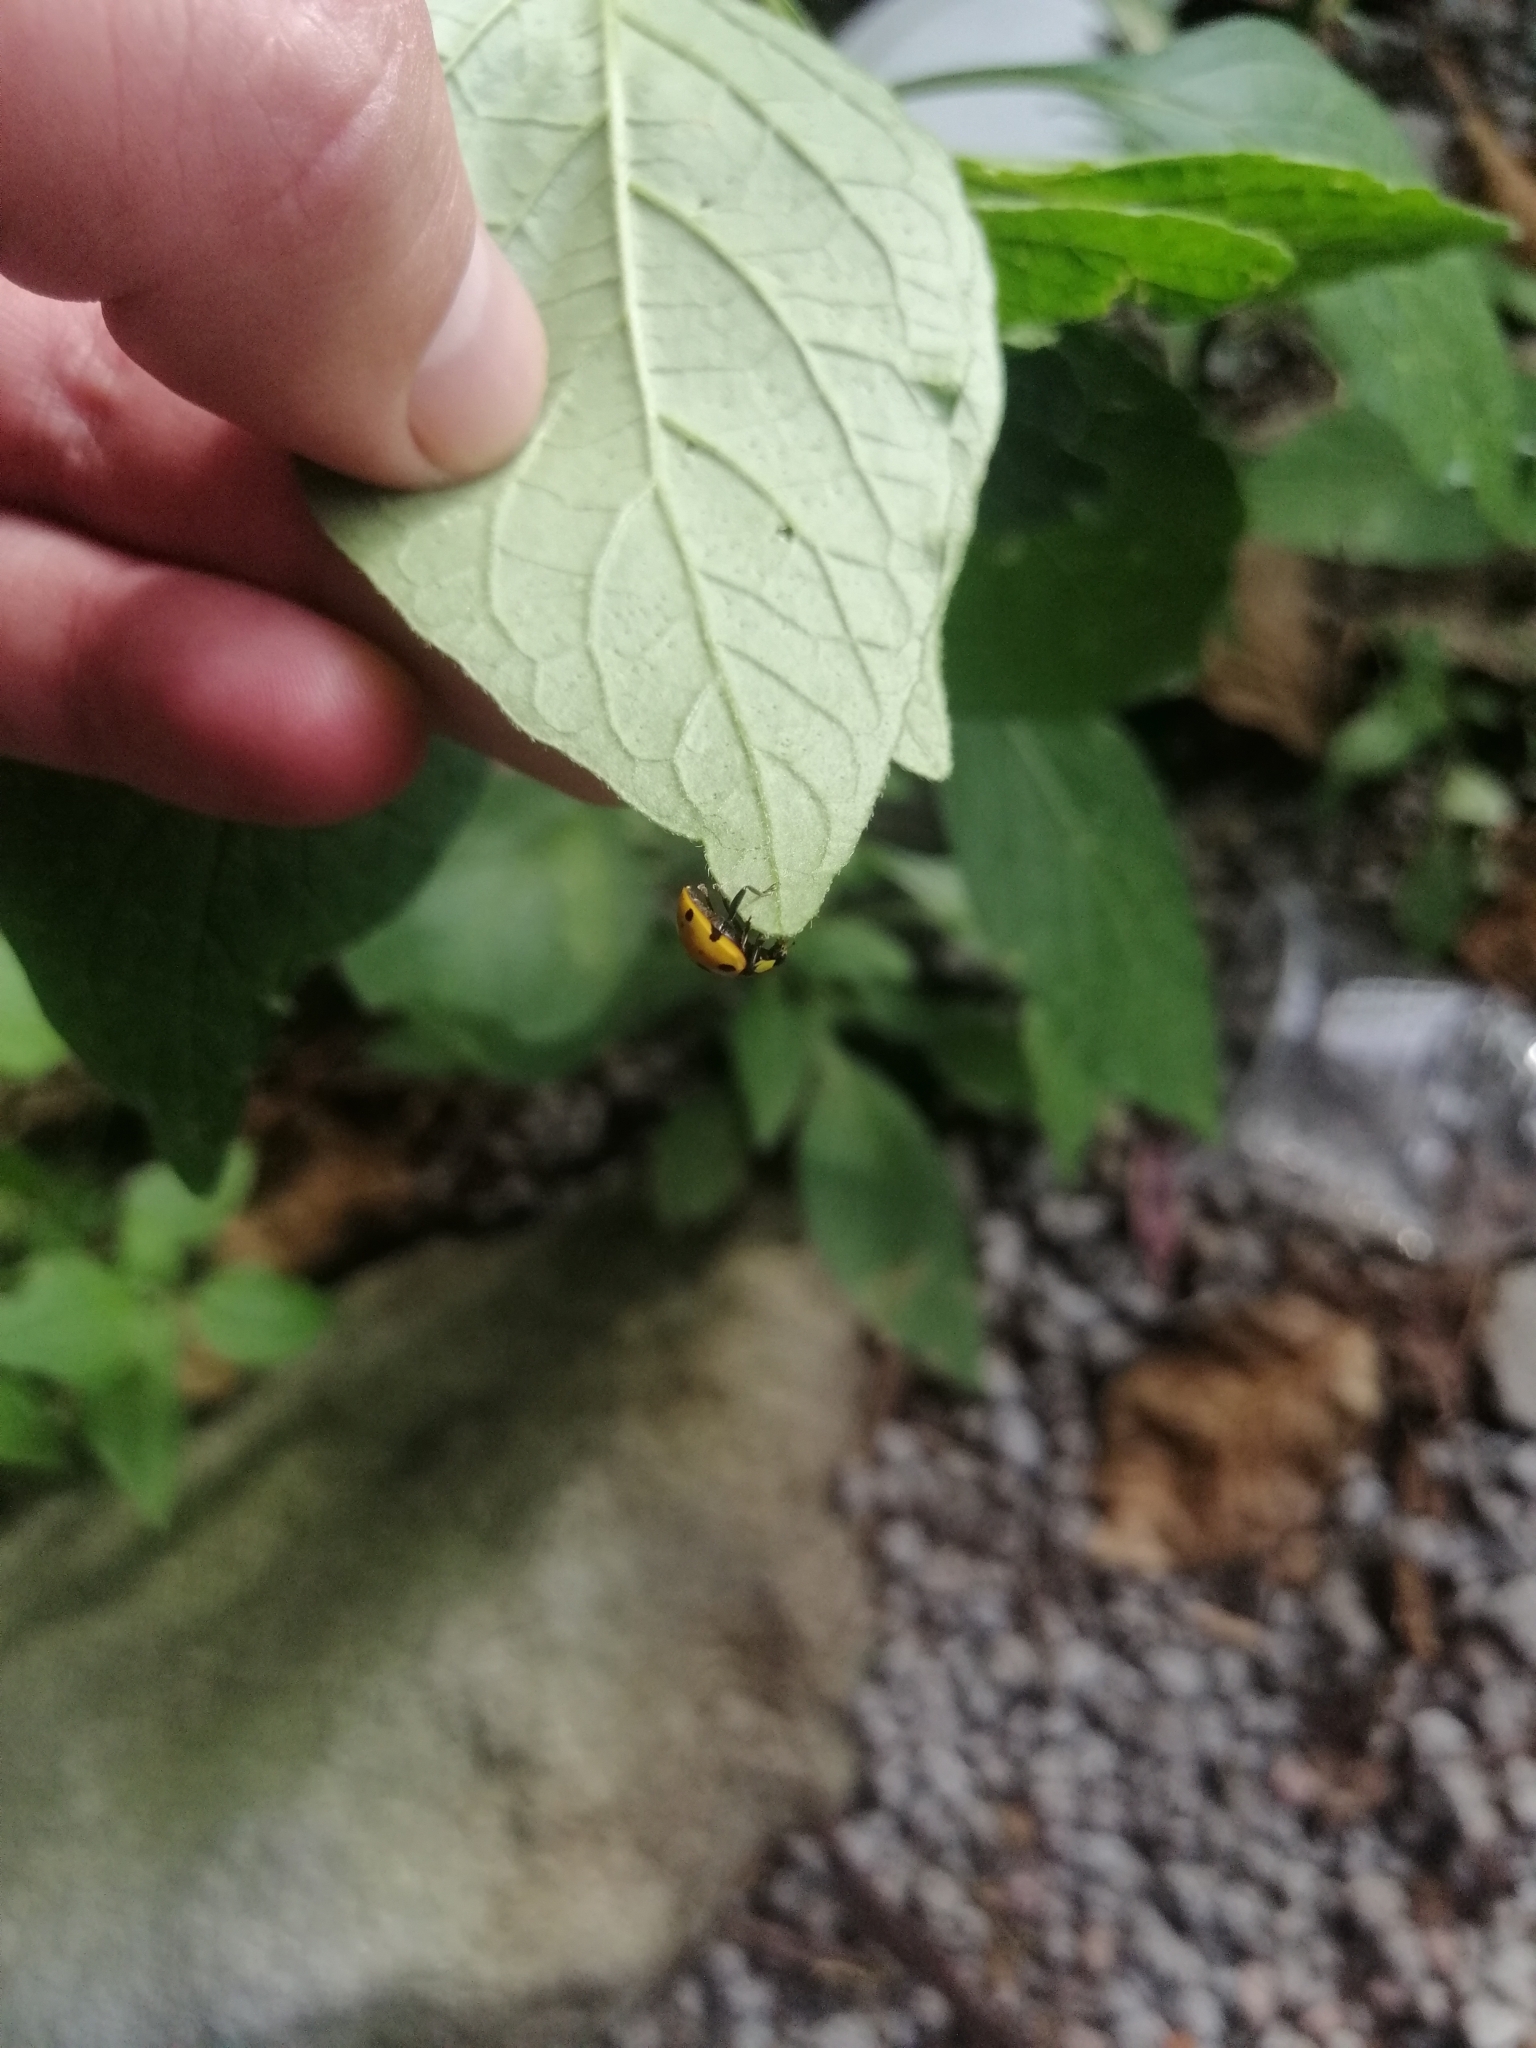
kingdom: Animalia
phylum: Arthropoda
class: Insecta
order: Coleoptera
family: Coccinellidae
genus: Neda
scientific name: Neda norrisi
